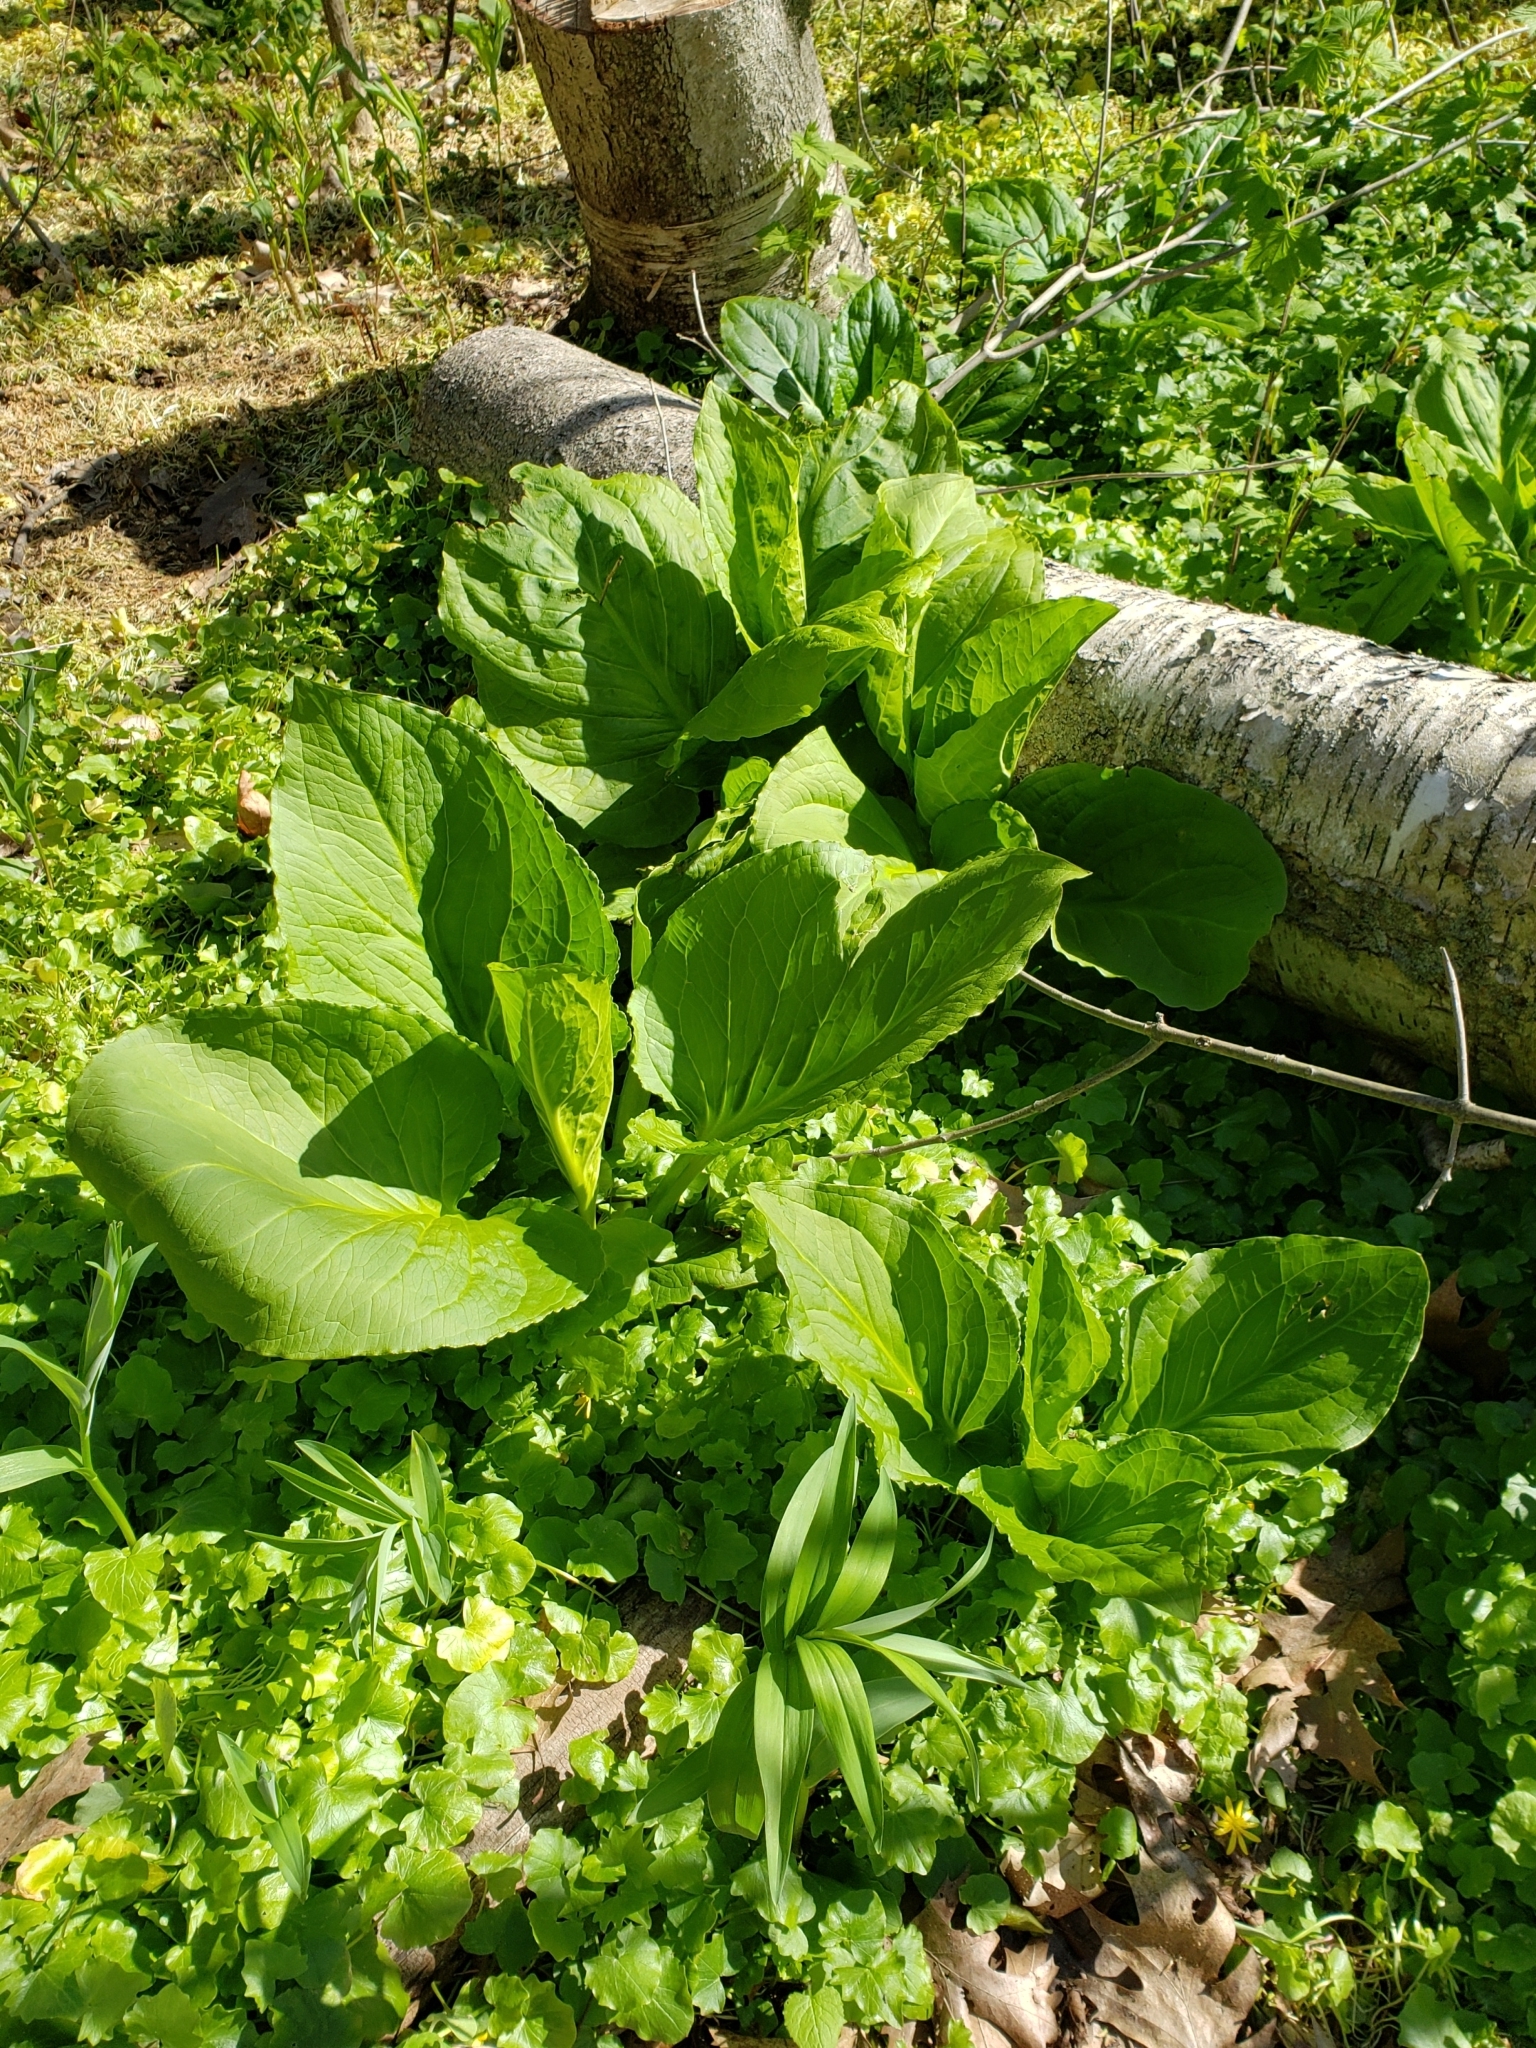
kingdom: Plantae
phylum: Tracheophyta
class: Liliopsida
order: Alismatales
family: Araceae
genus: Symplocarpus
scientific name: Symplocarpus foetidus
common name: Eastern skunk cabbage
